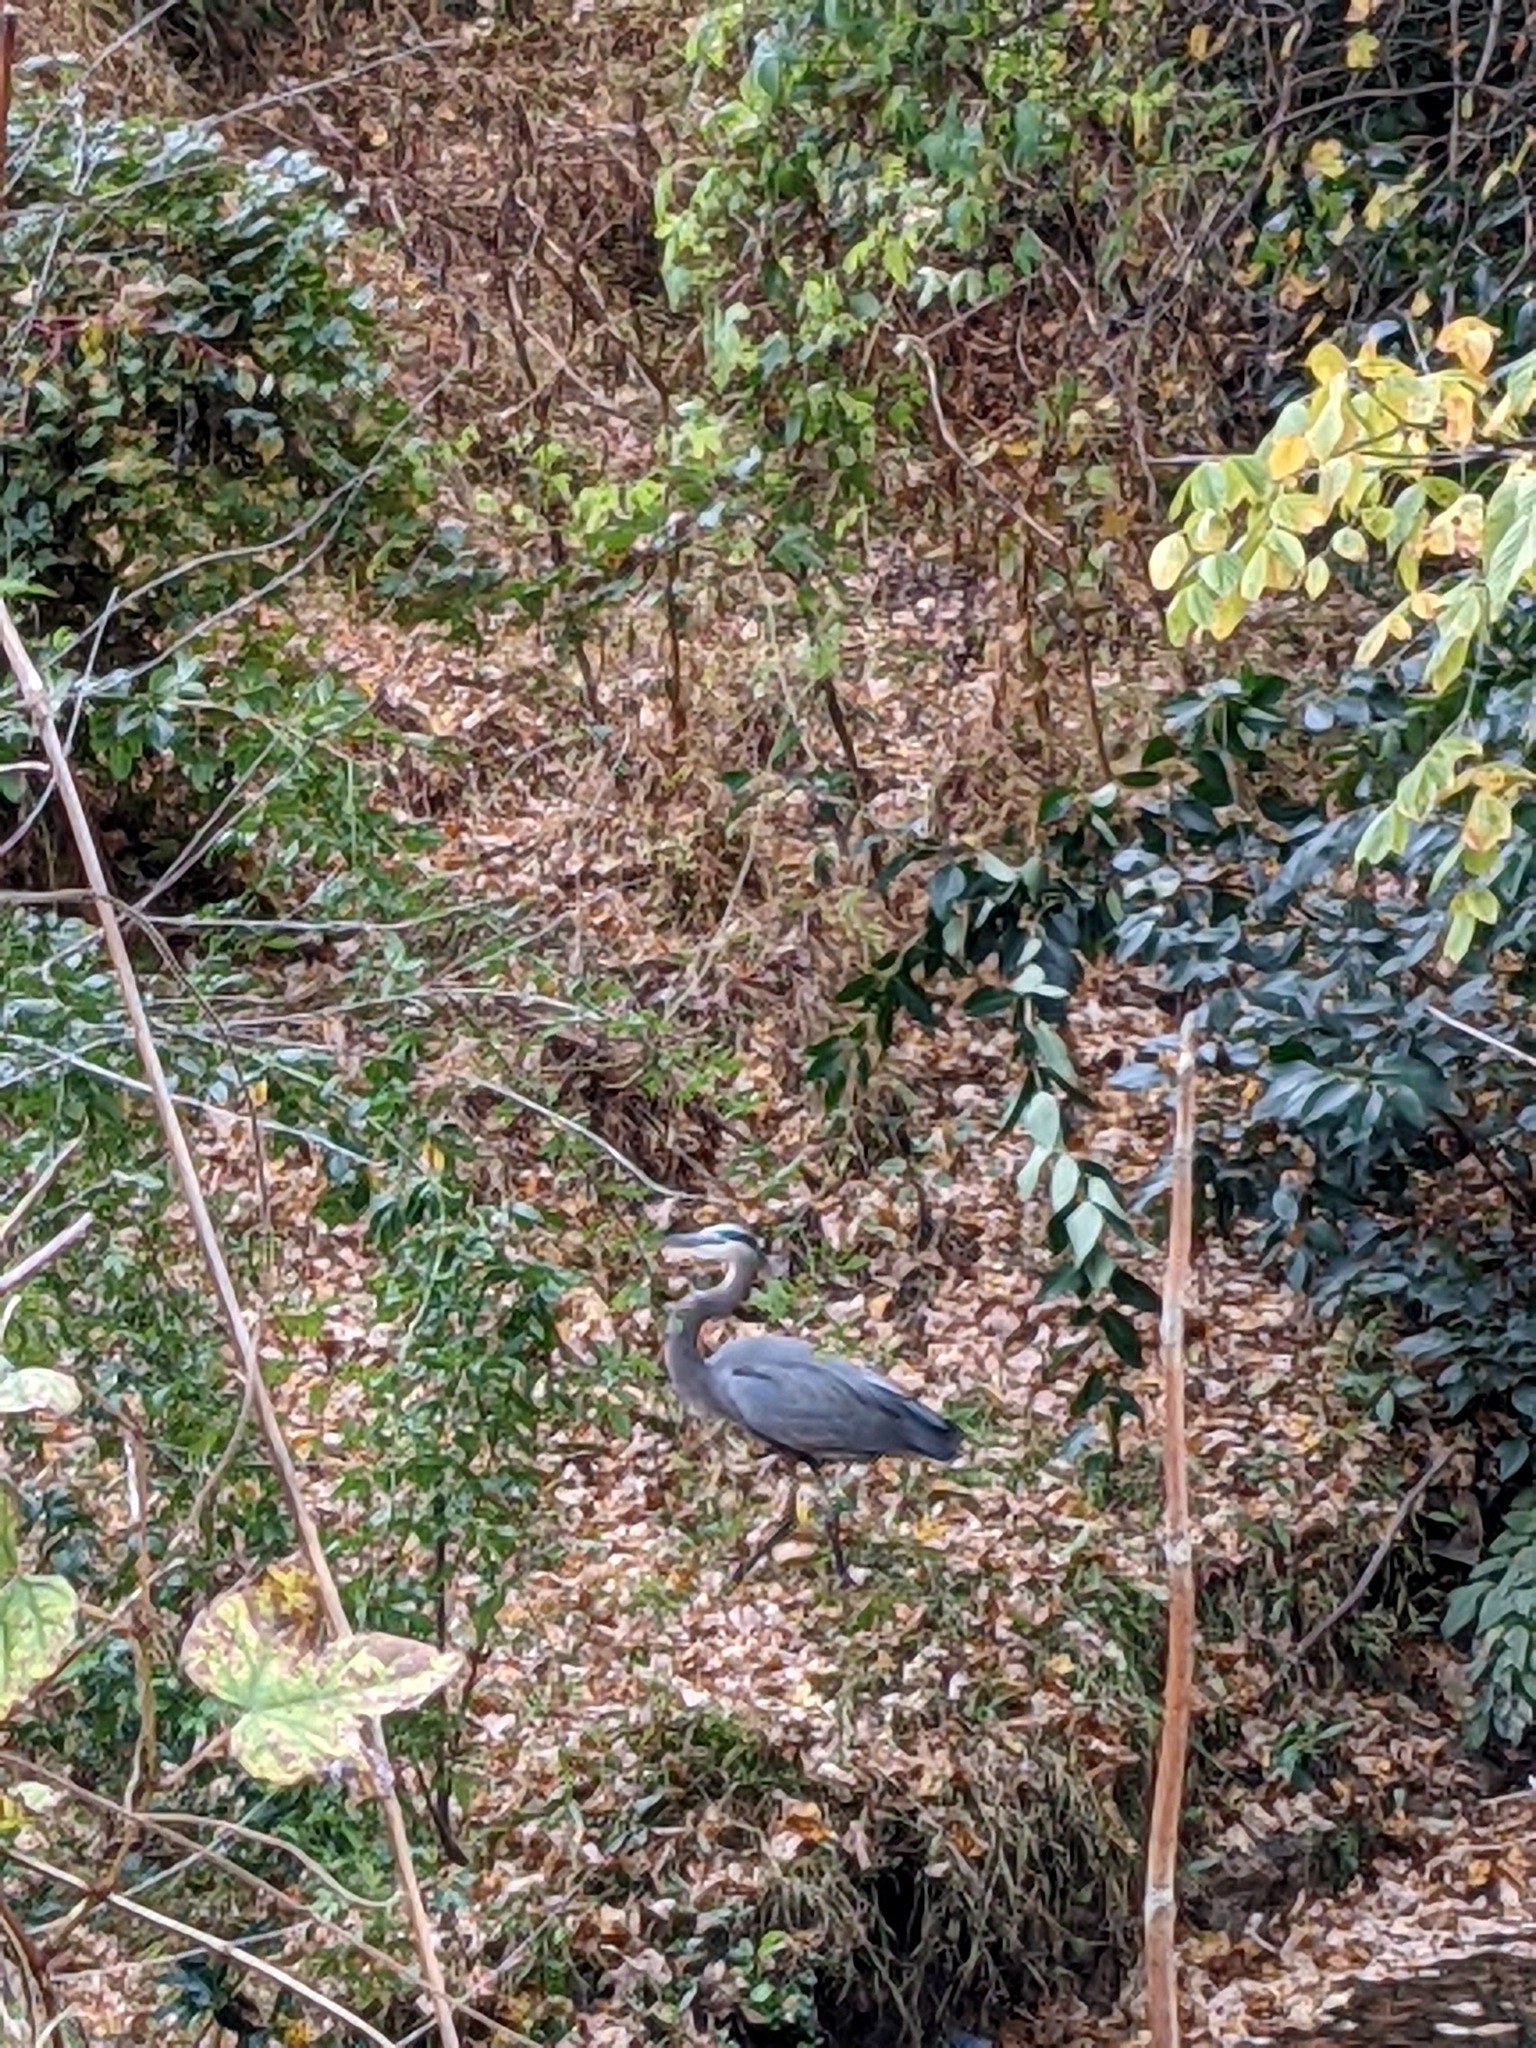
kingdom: Animalia
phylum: Chordata
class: Aves
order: Pelecaniformes
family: Ardeidae
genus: Ardea
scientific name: Ardea herodias
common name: Great blue heron
